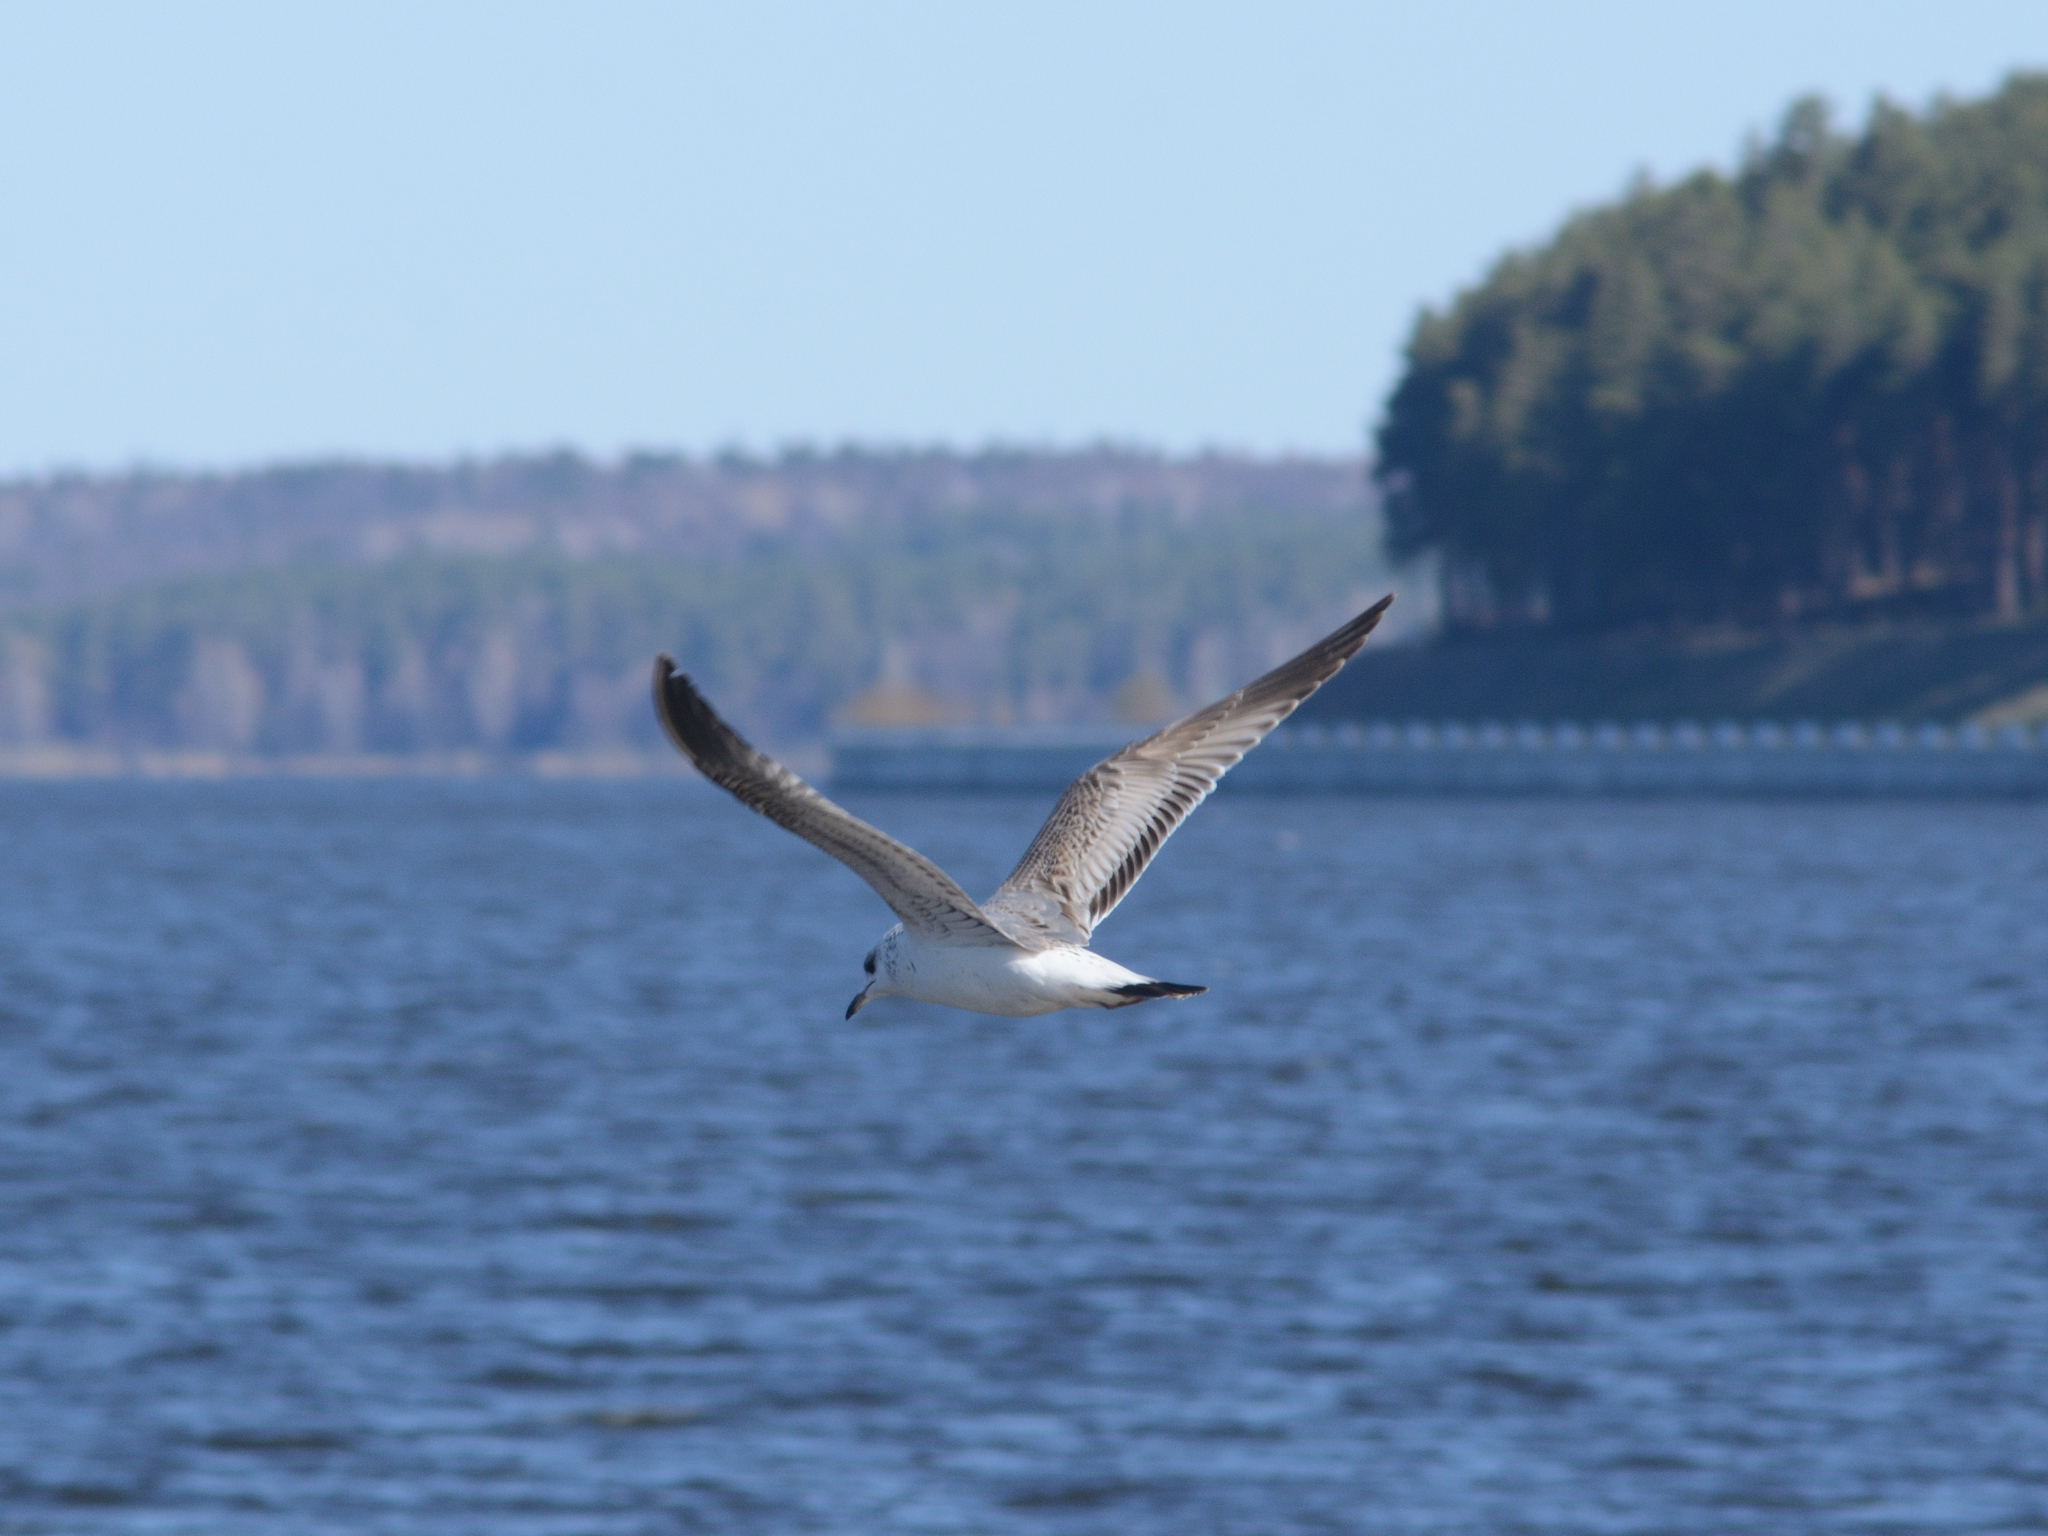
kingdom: Animalia
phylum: Chordata
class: Aves
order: Charadriiformes
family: Laridae
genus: Larus
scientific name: Larus canus
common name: Mew gull
